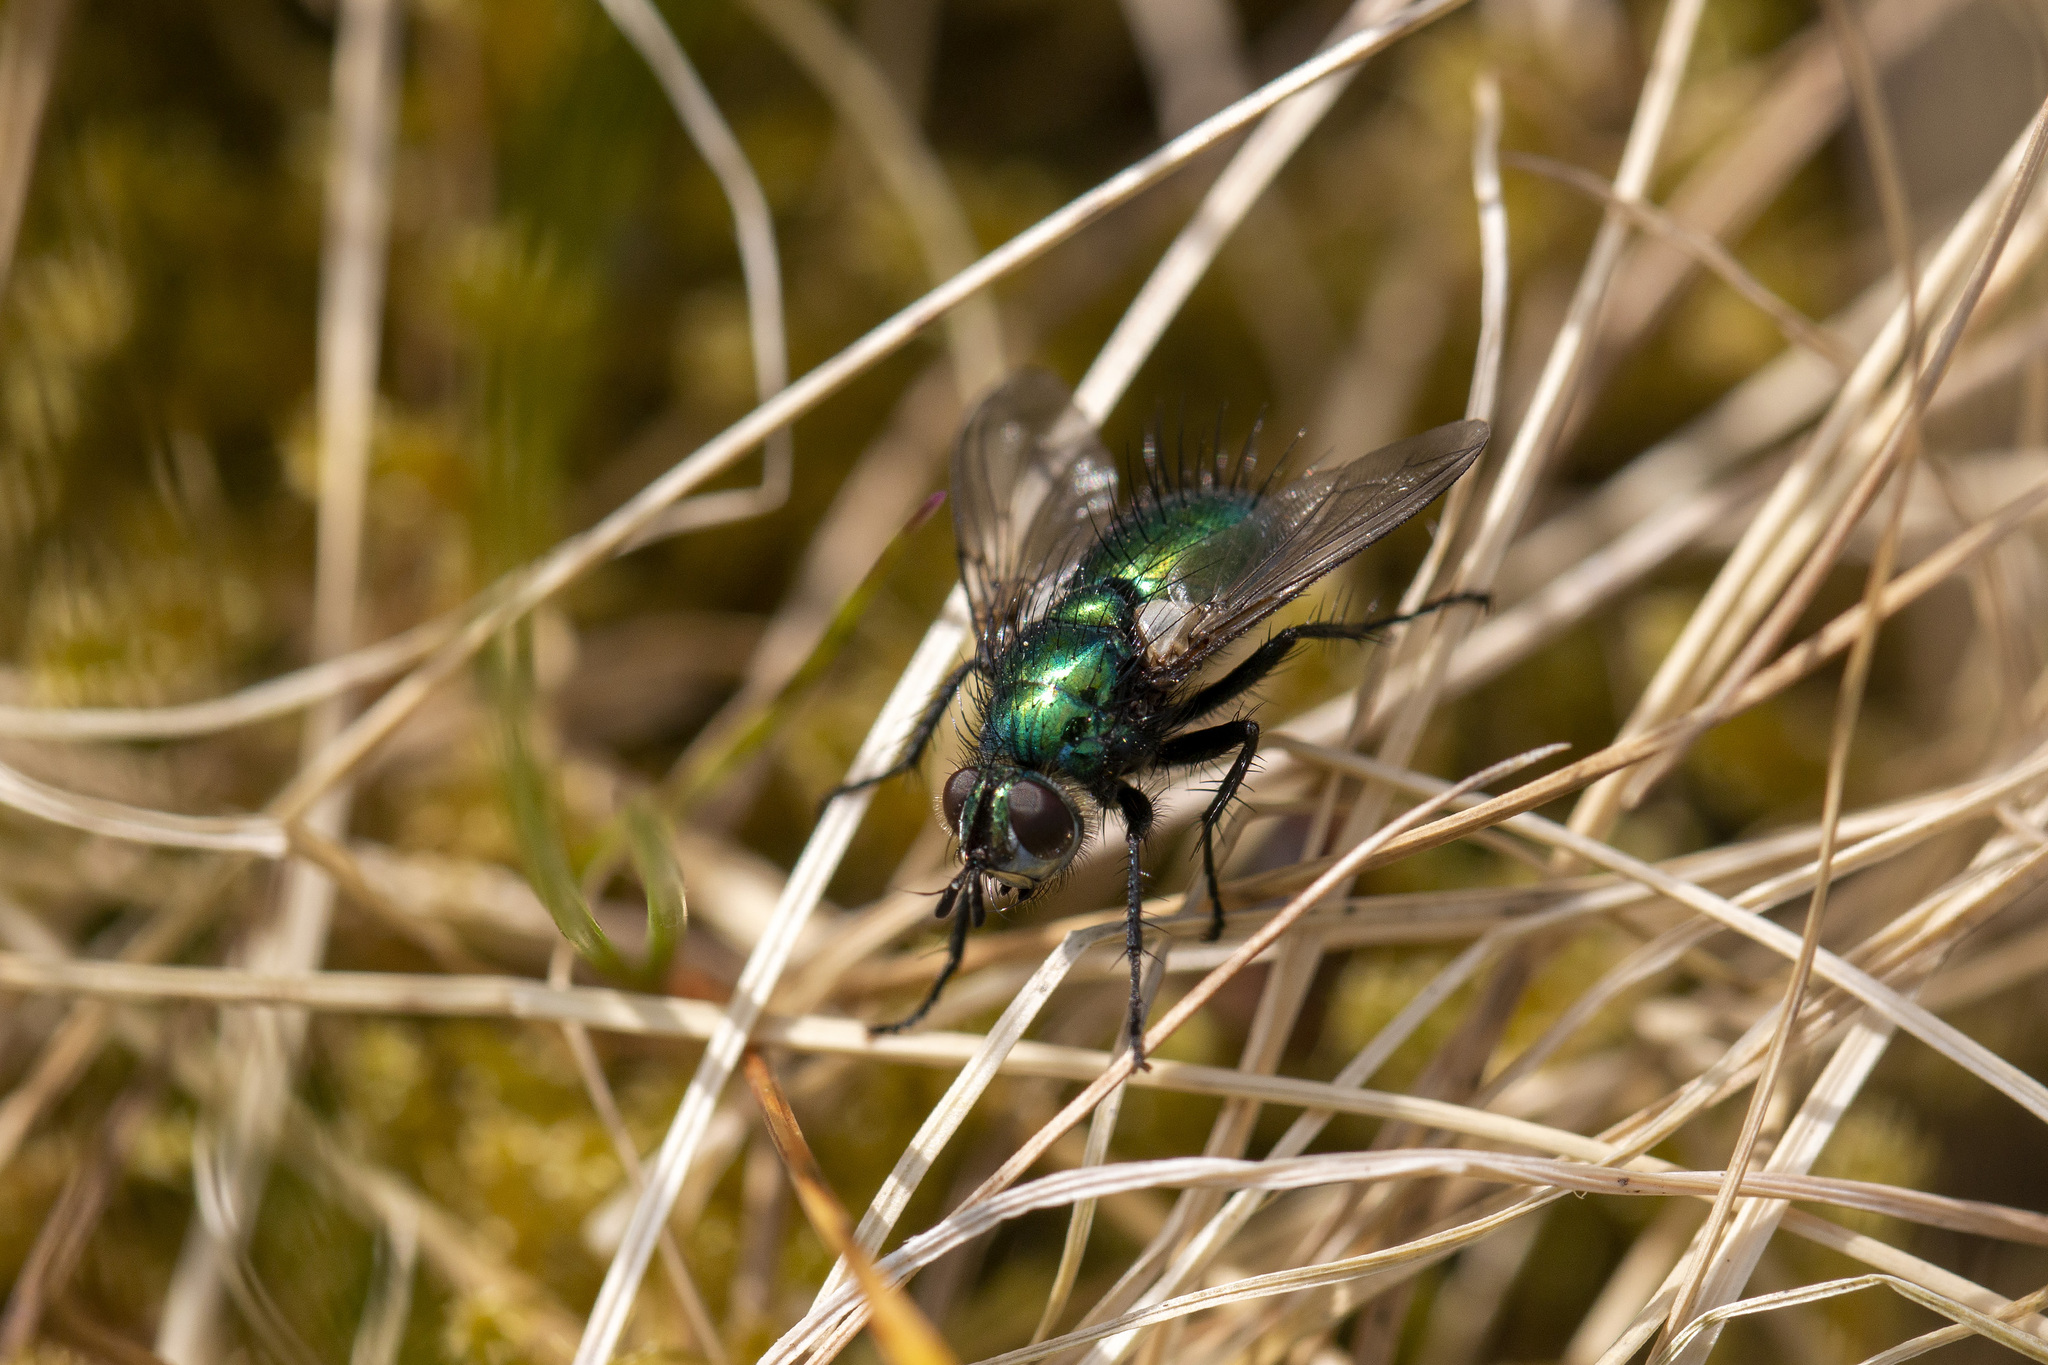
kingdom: Animalia
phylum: Arthropoda
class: Insecta
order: Diptera
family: Tachinidae
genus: Gymnocheta
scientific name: Gymnocheta viridis
